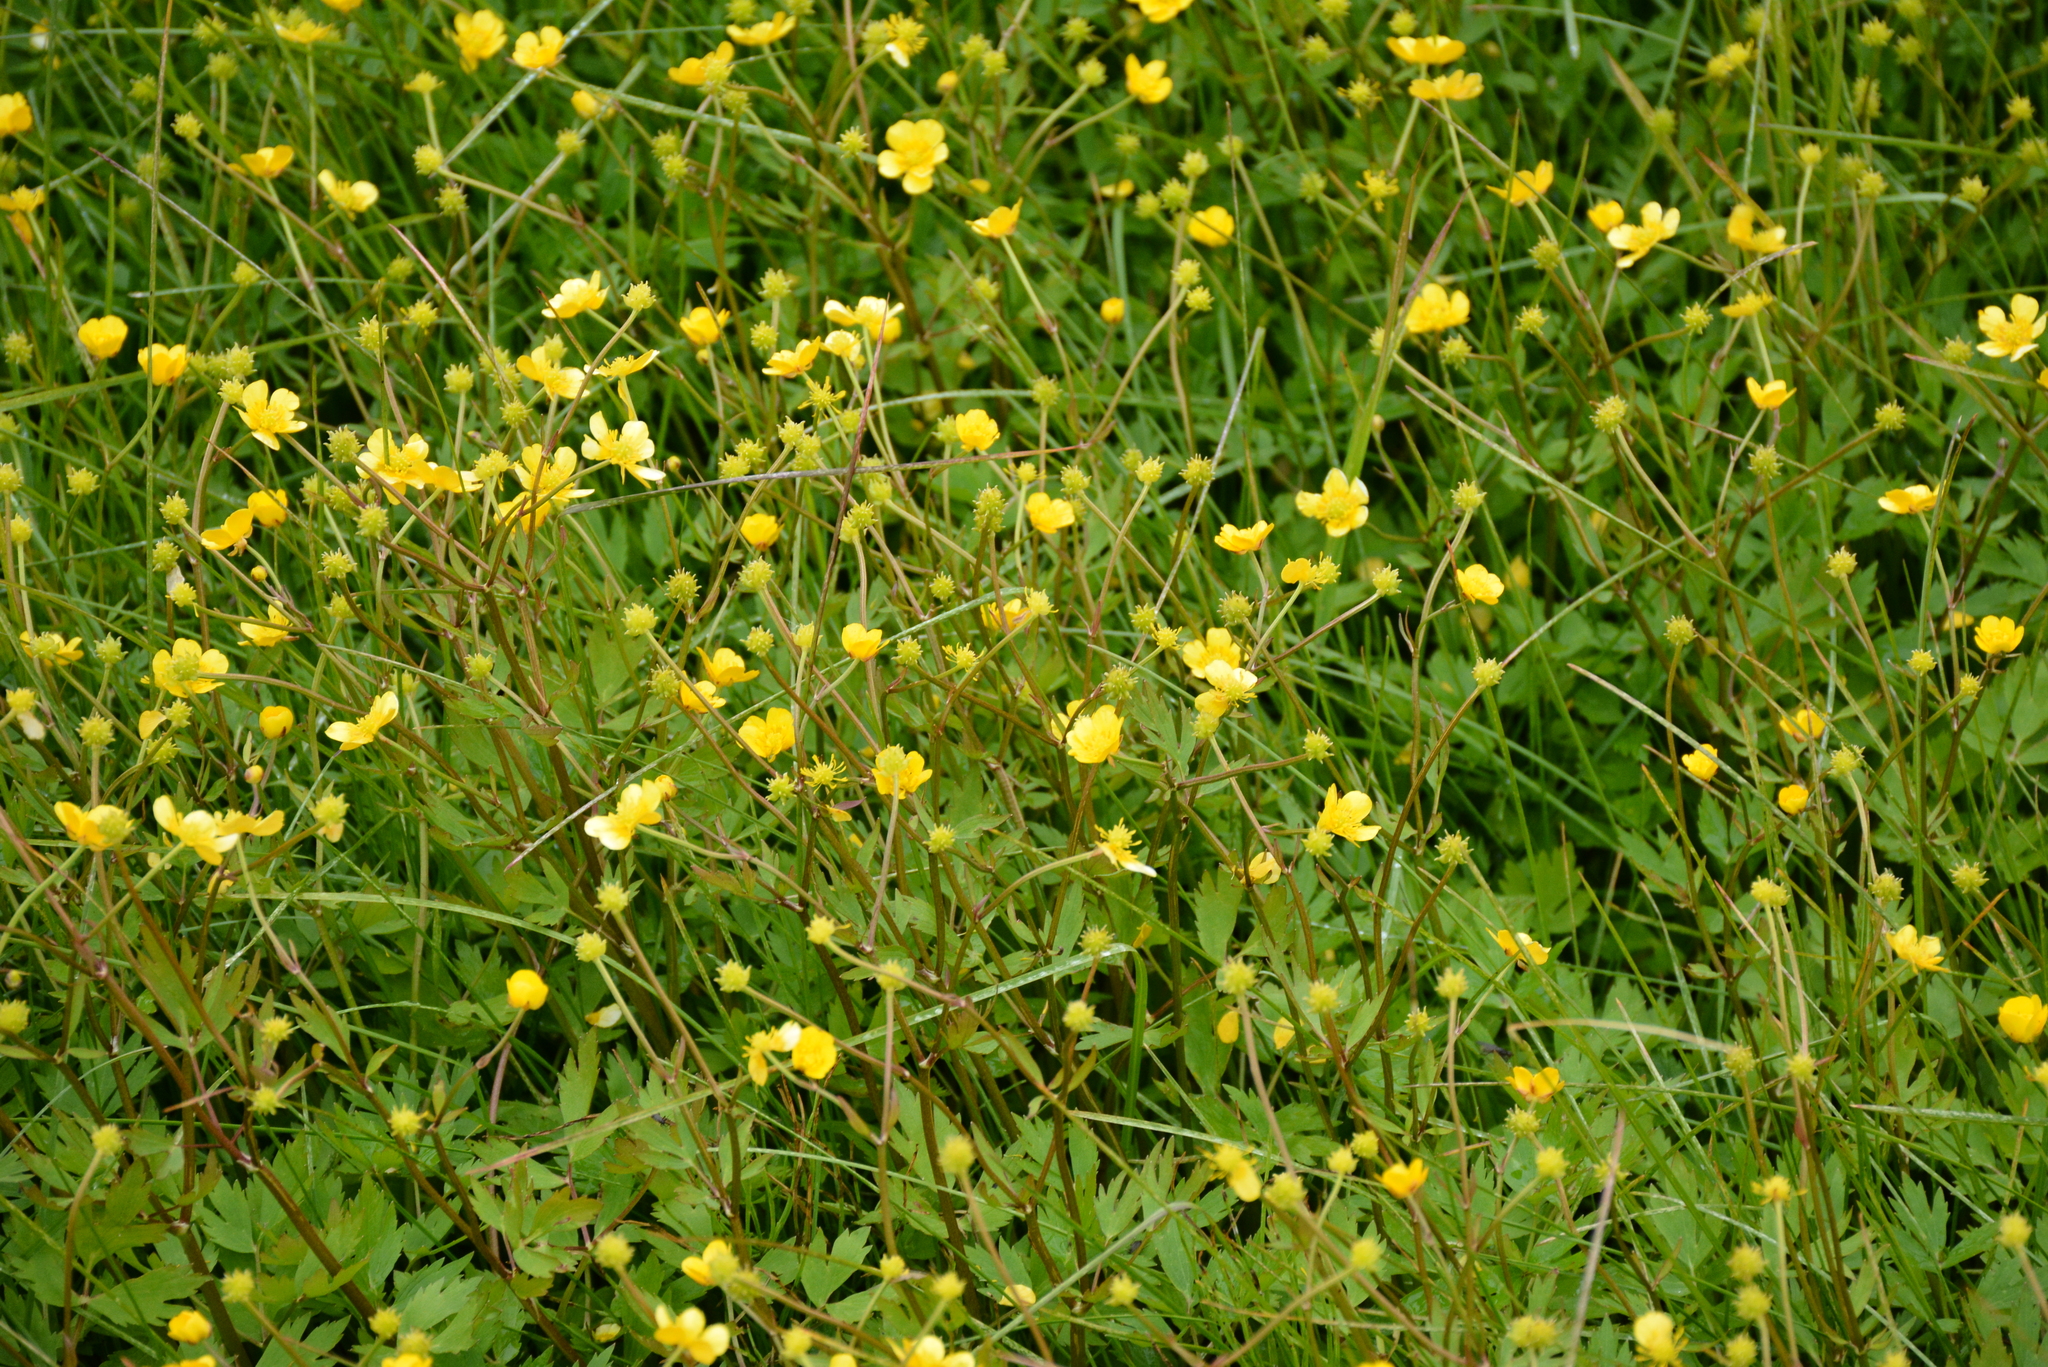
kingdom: Plantae
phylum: Tracheophyta
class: Magnoliopsida
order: Ranunculales
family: Ranunculaceae
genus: Ranunculus
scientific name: Ranunculus repens
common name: Creeping buttercup
